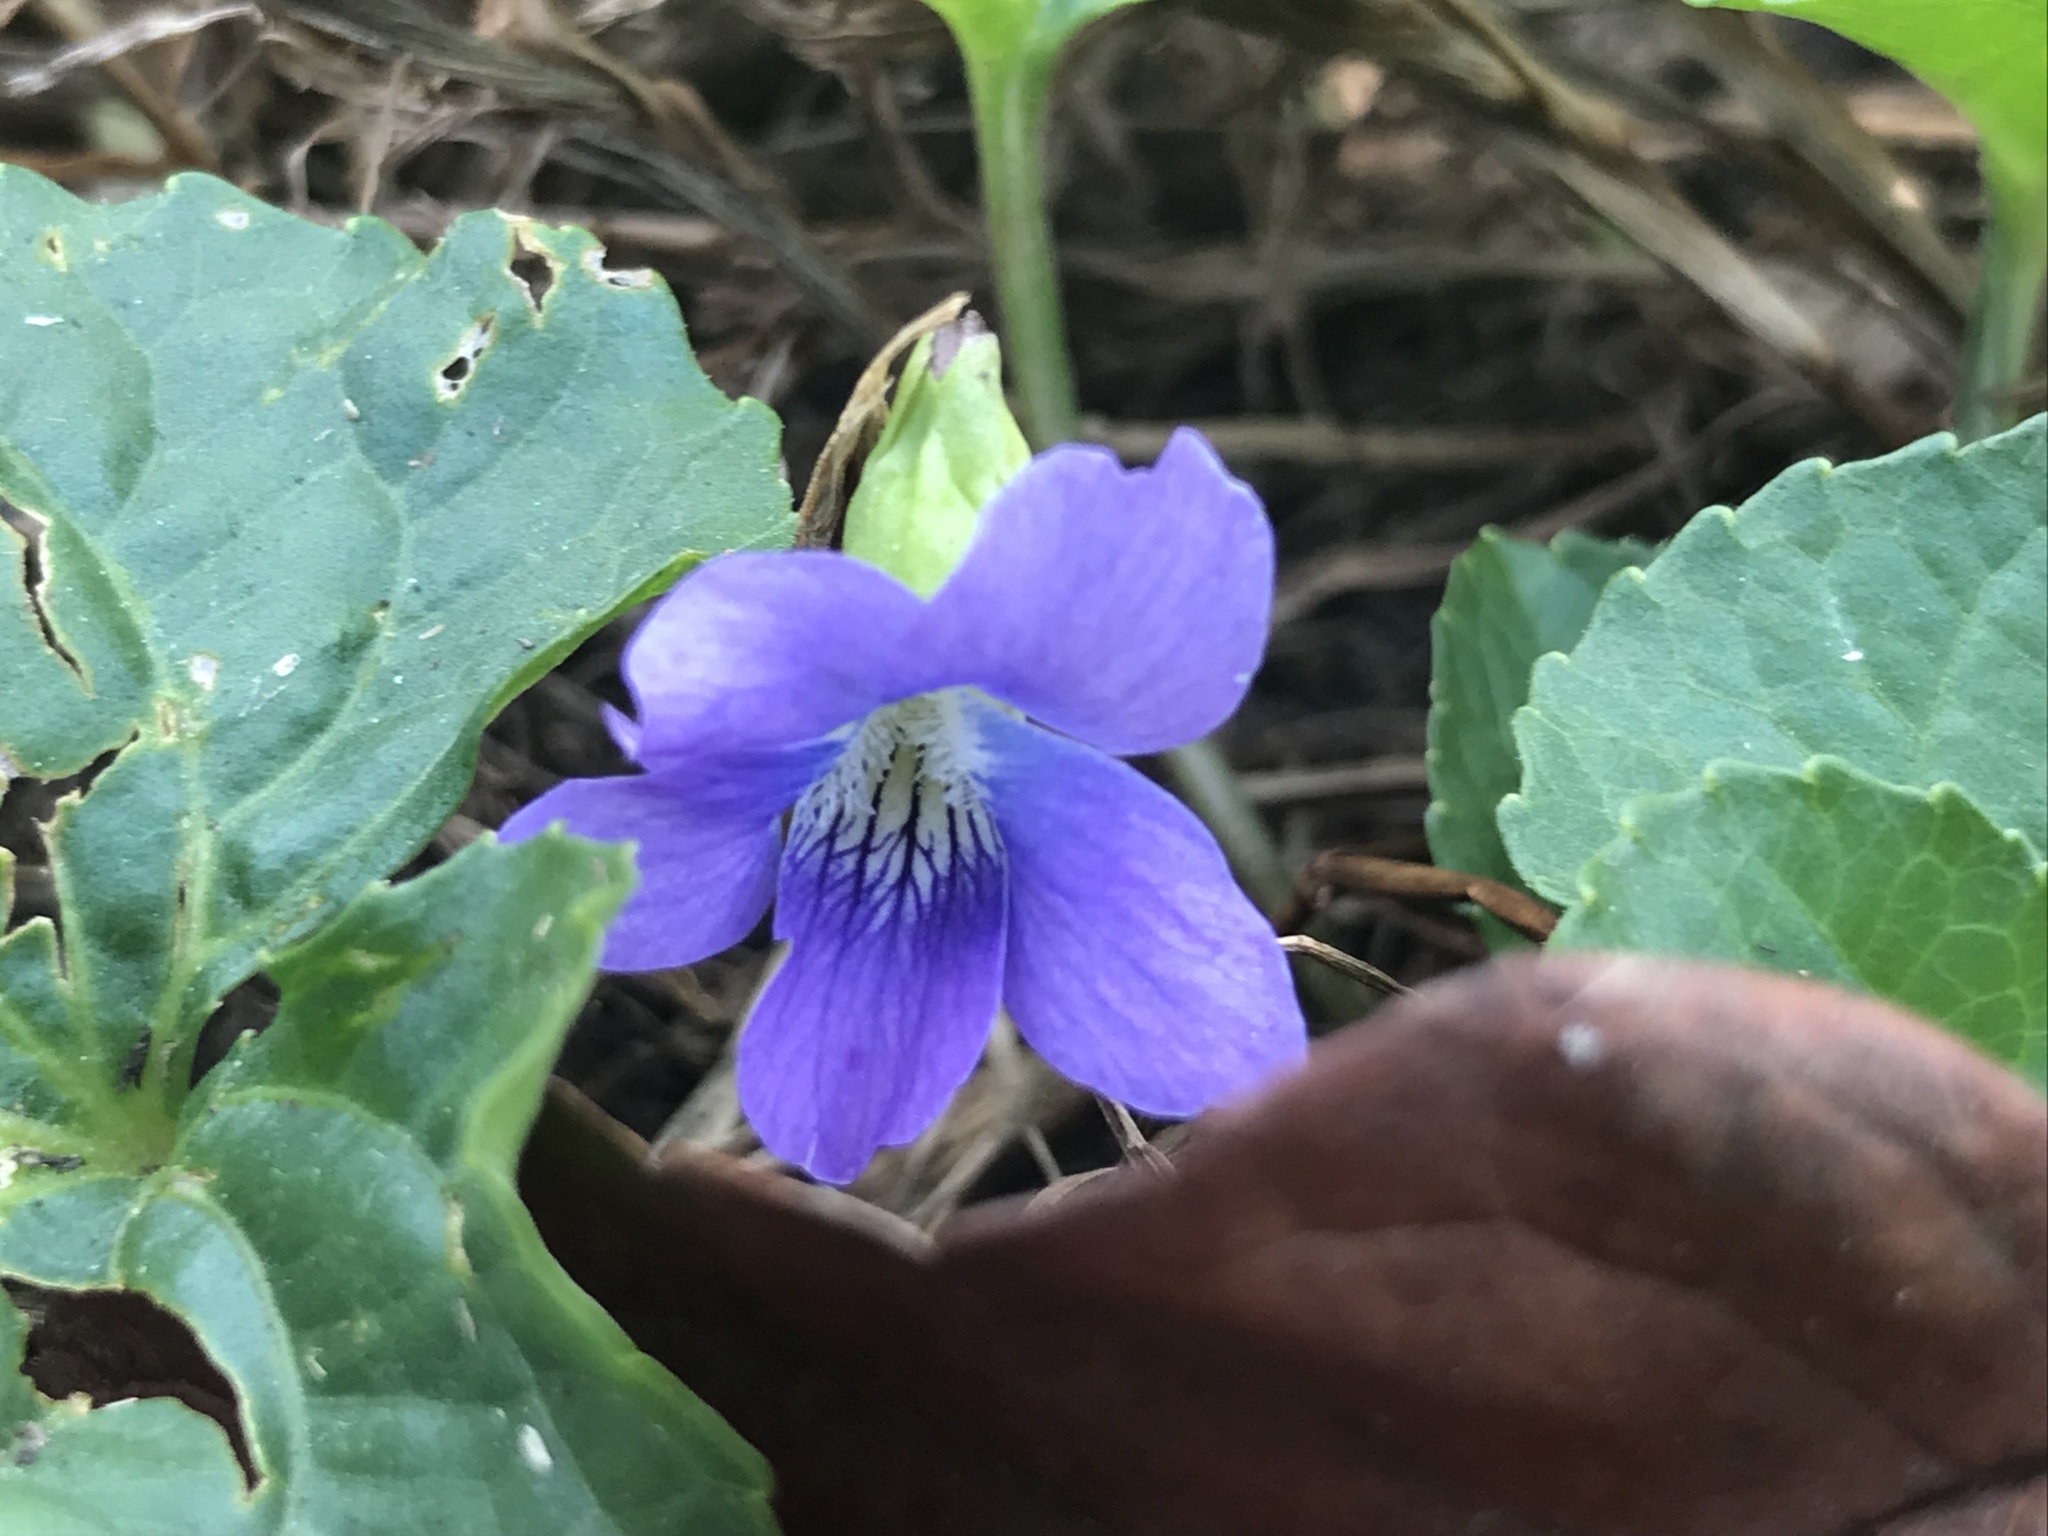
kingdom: Plantae
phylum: Tracheophyta
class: Magnoliopsida
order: Malpighiales
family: Violaceae
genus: Viola
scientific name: Viola sororia
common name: Dooryard violet
